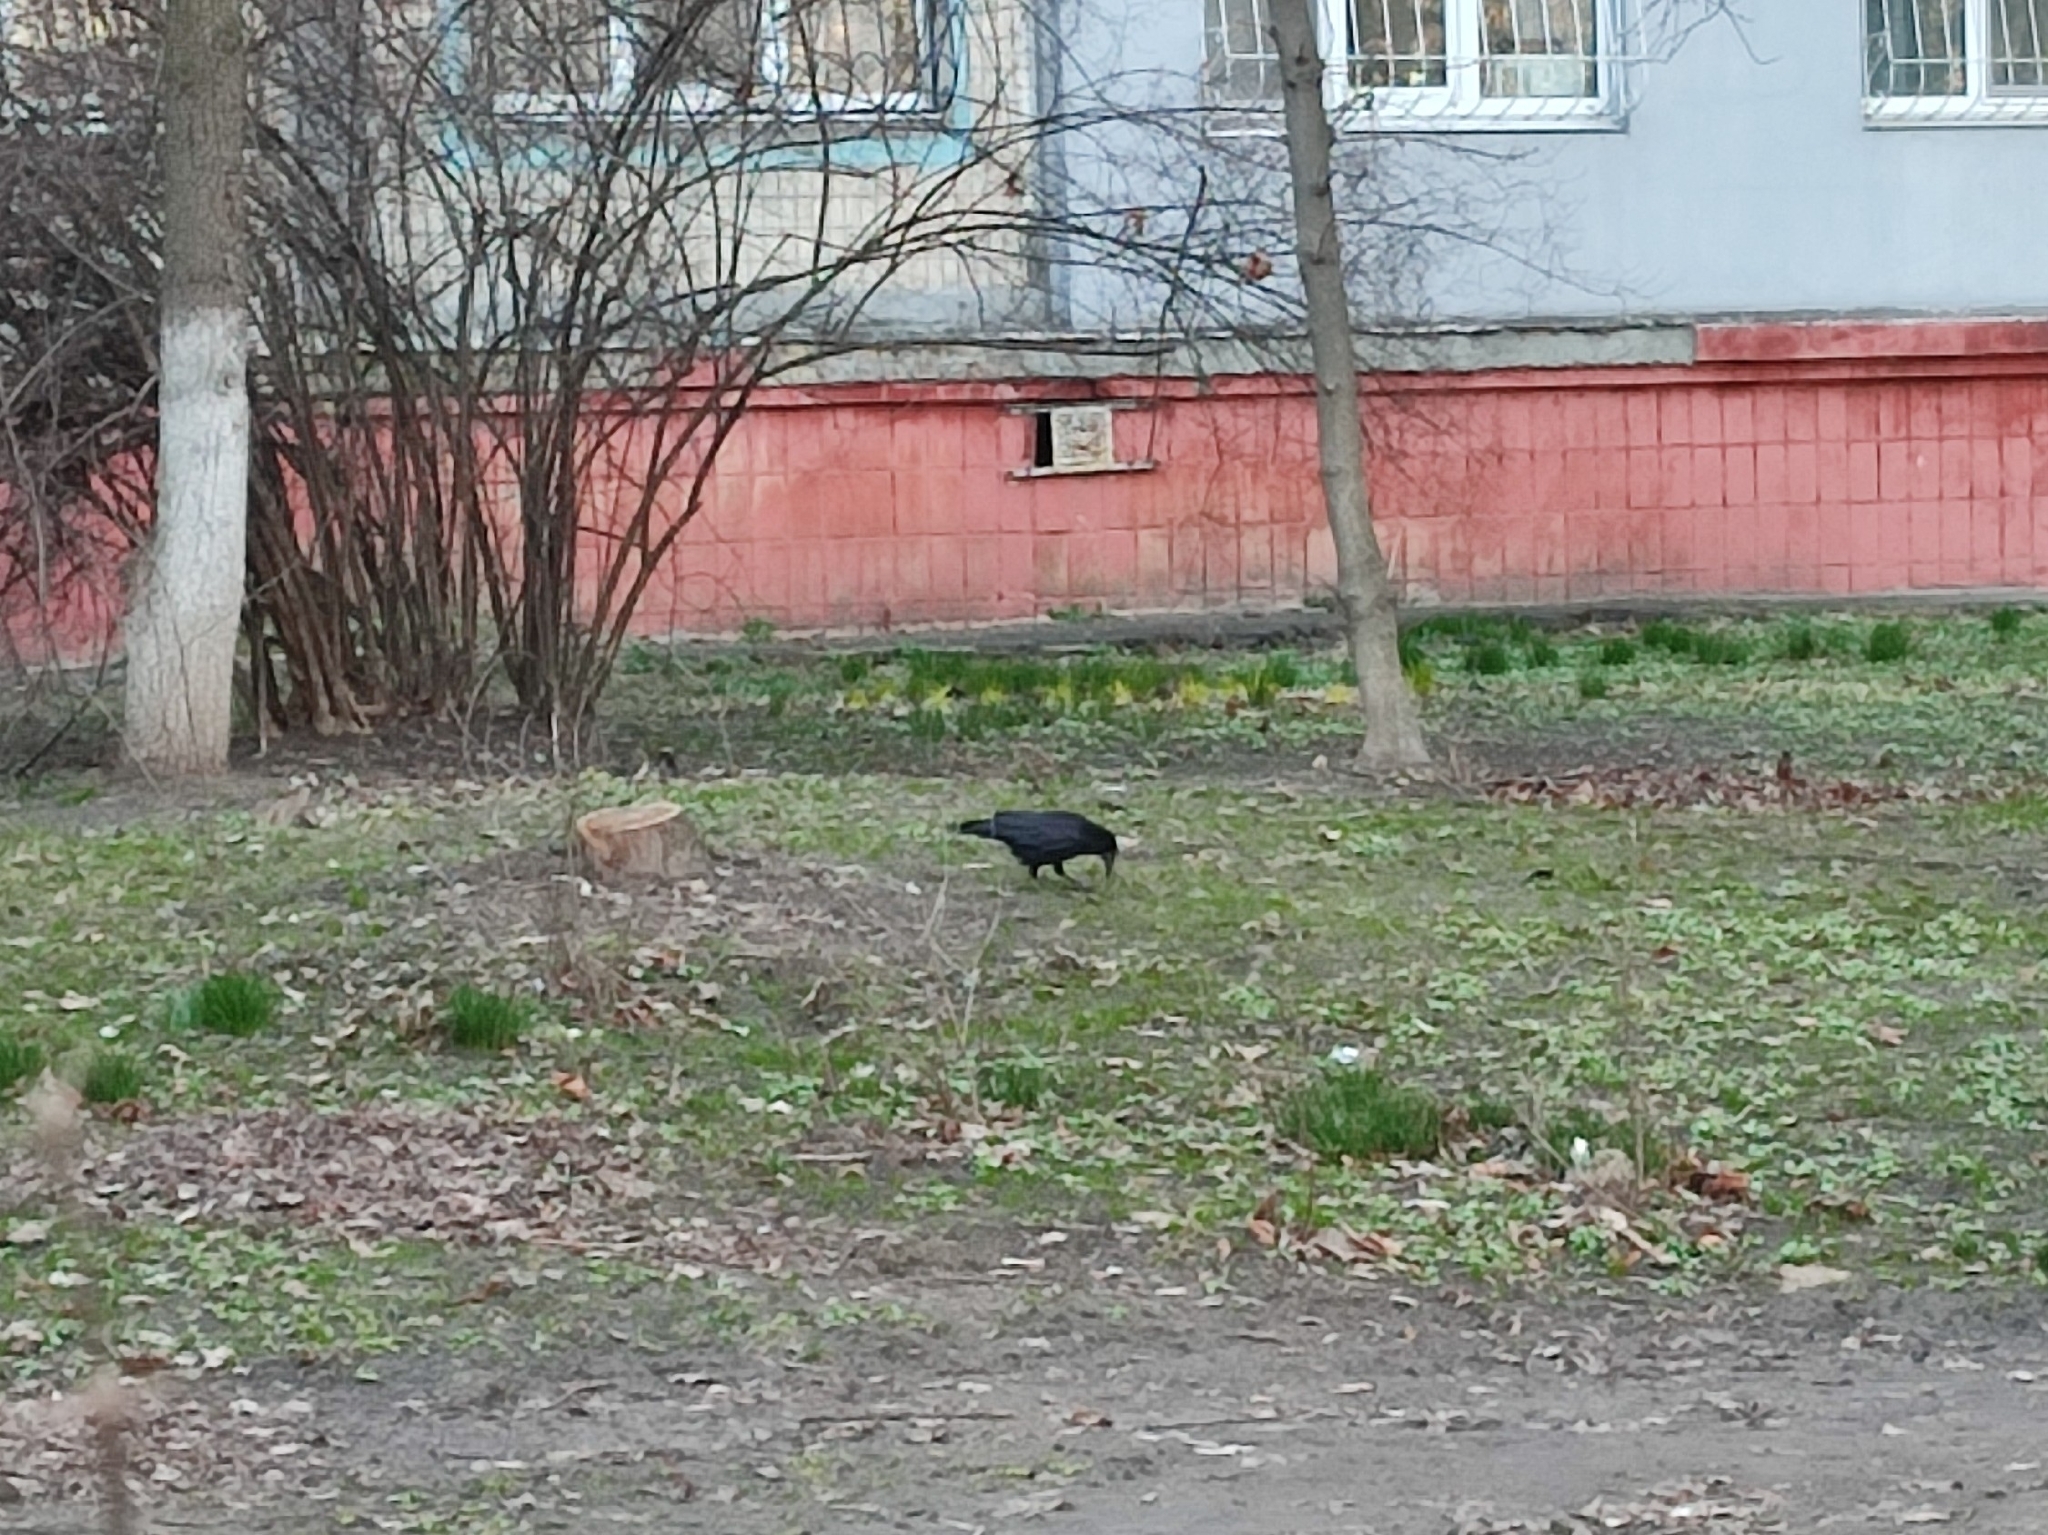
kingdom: Animalia
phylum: Chordata
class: Aves
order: Passeriformes
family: Corvidae
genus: Corvus
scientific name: Corvus frugilegus
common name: Rook
